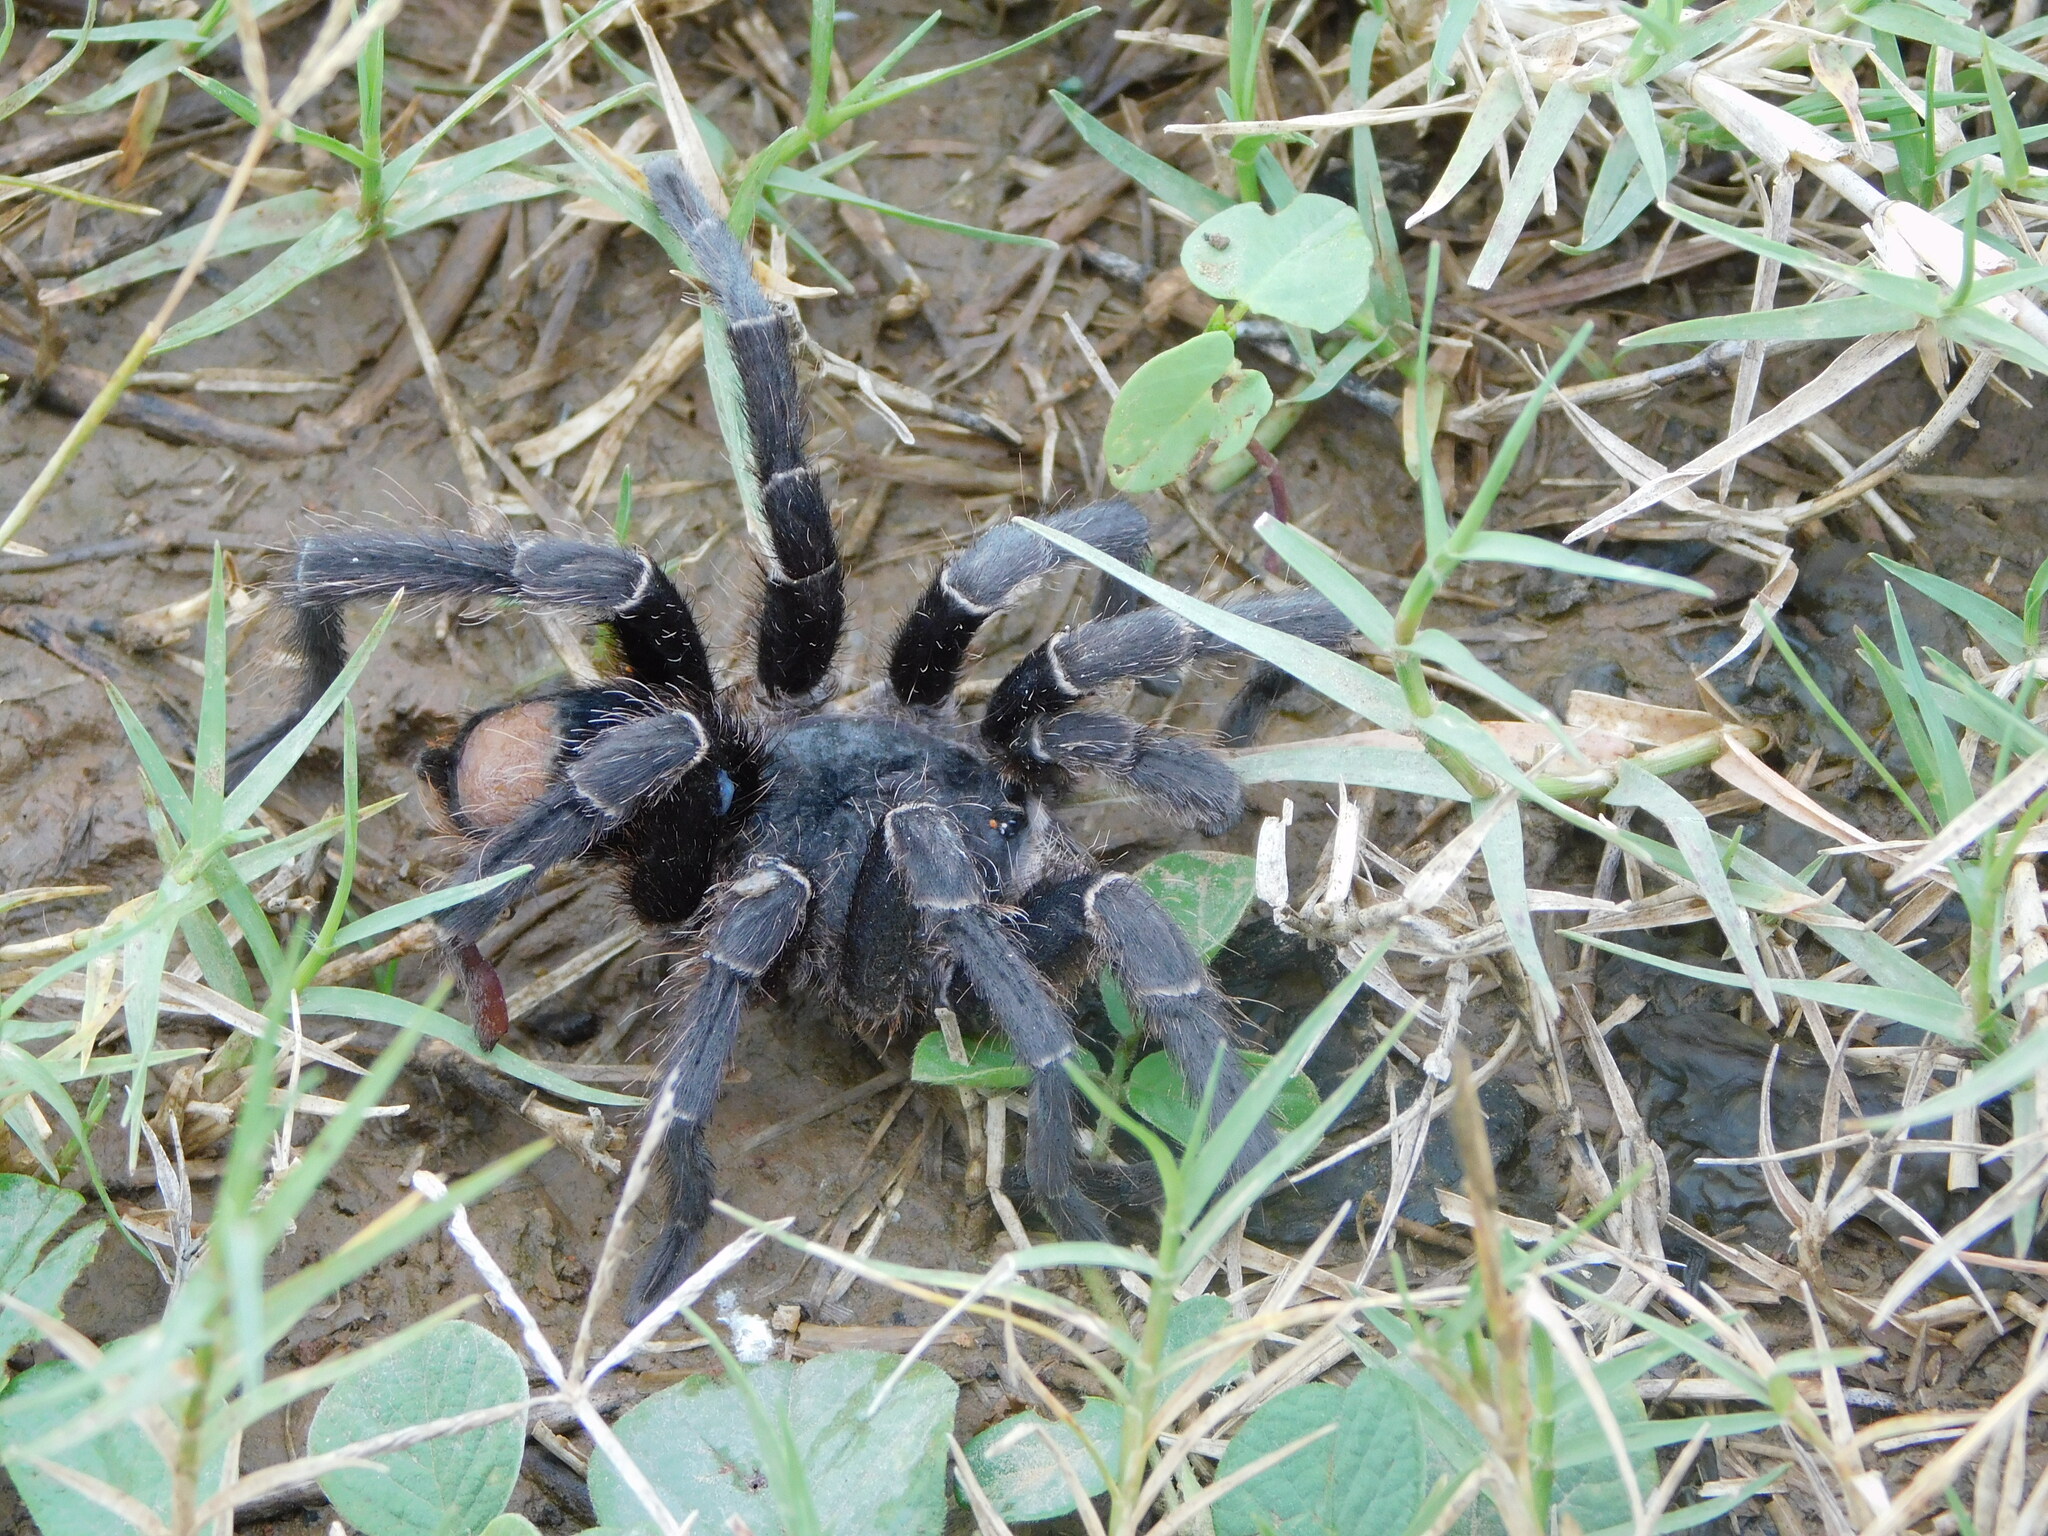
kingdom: Animalia
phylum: Arthropoda
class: Arachnida
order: Araneae
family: Theraphosidae
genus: Eupalaestrus
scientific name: Eupalaestrus weijenberghi
